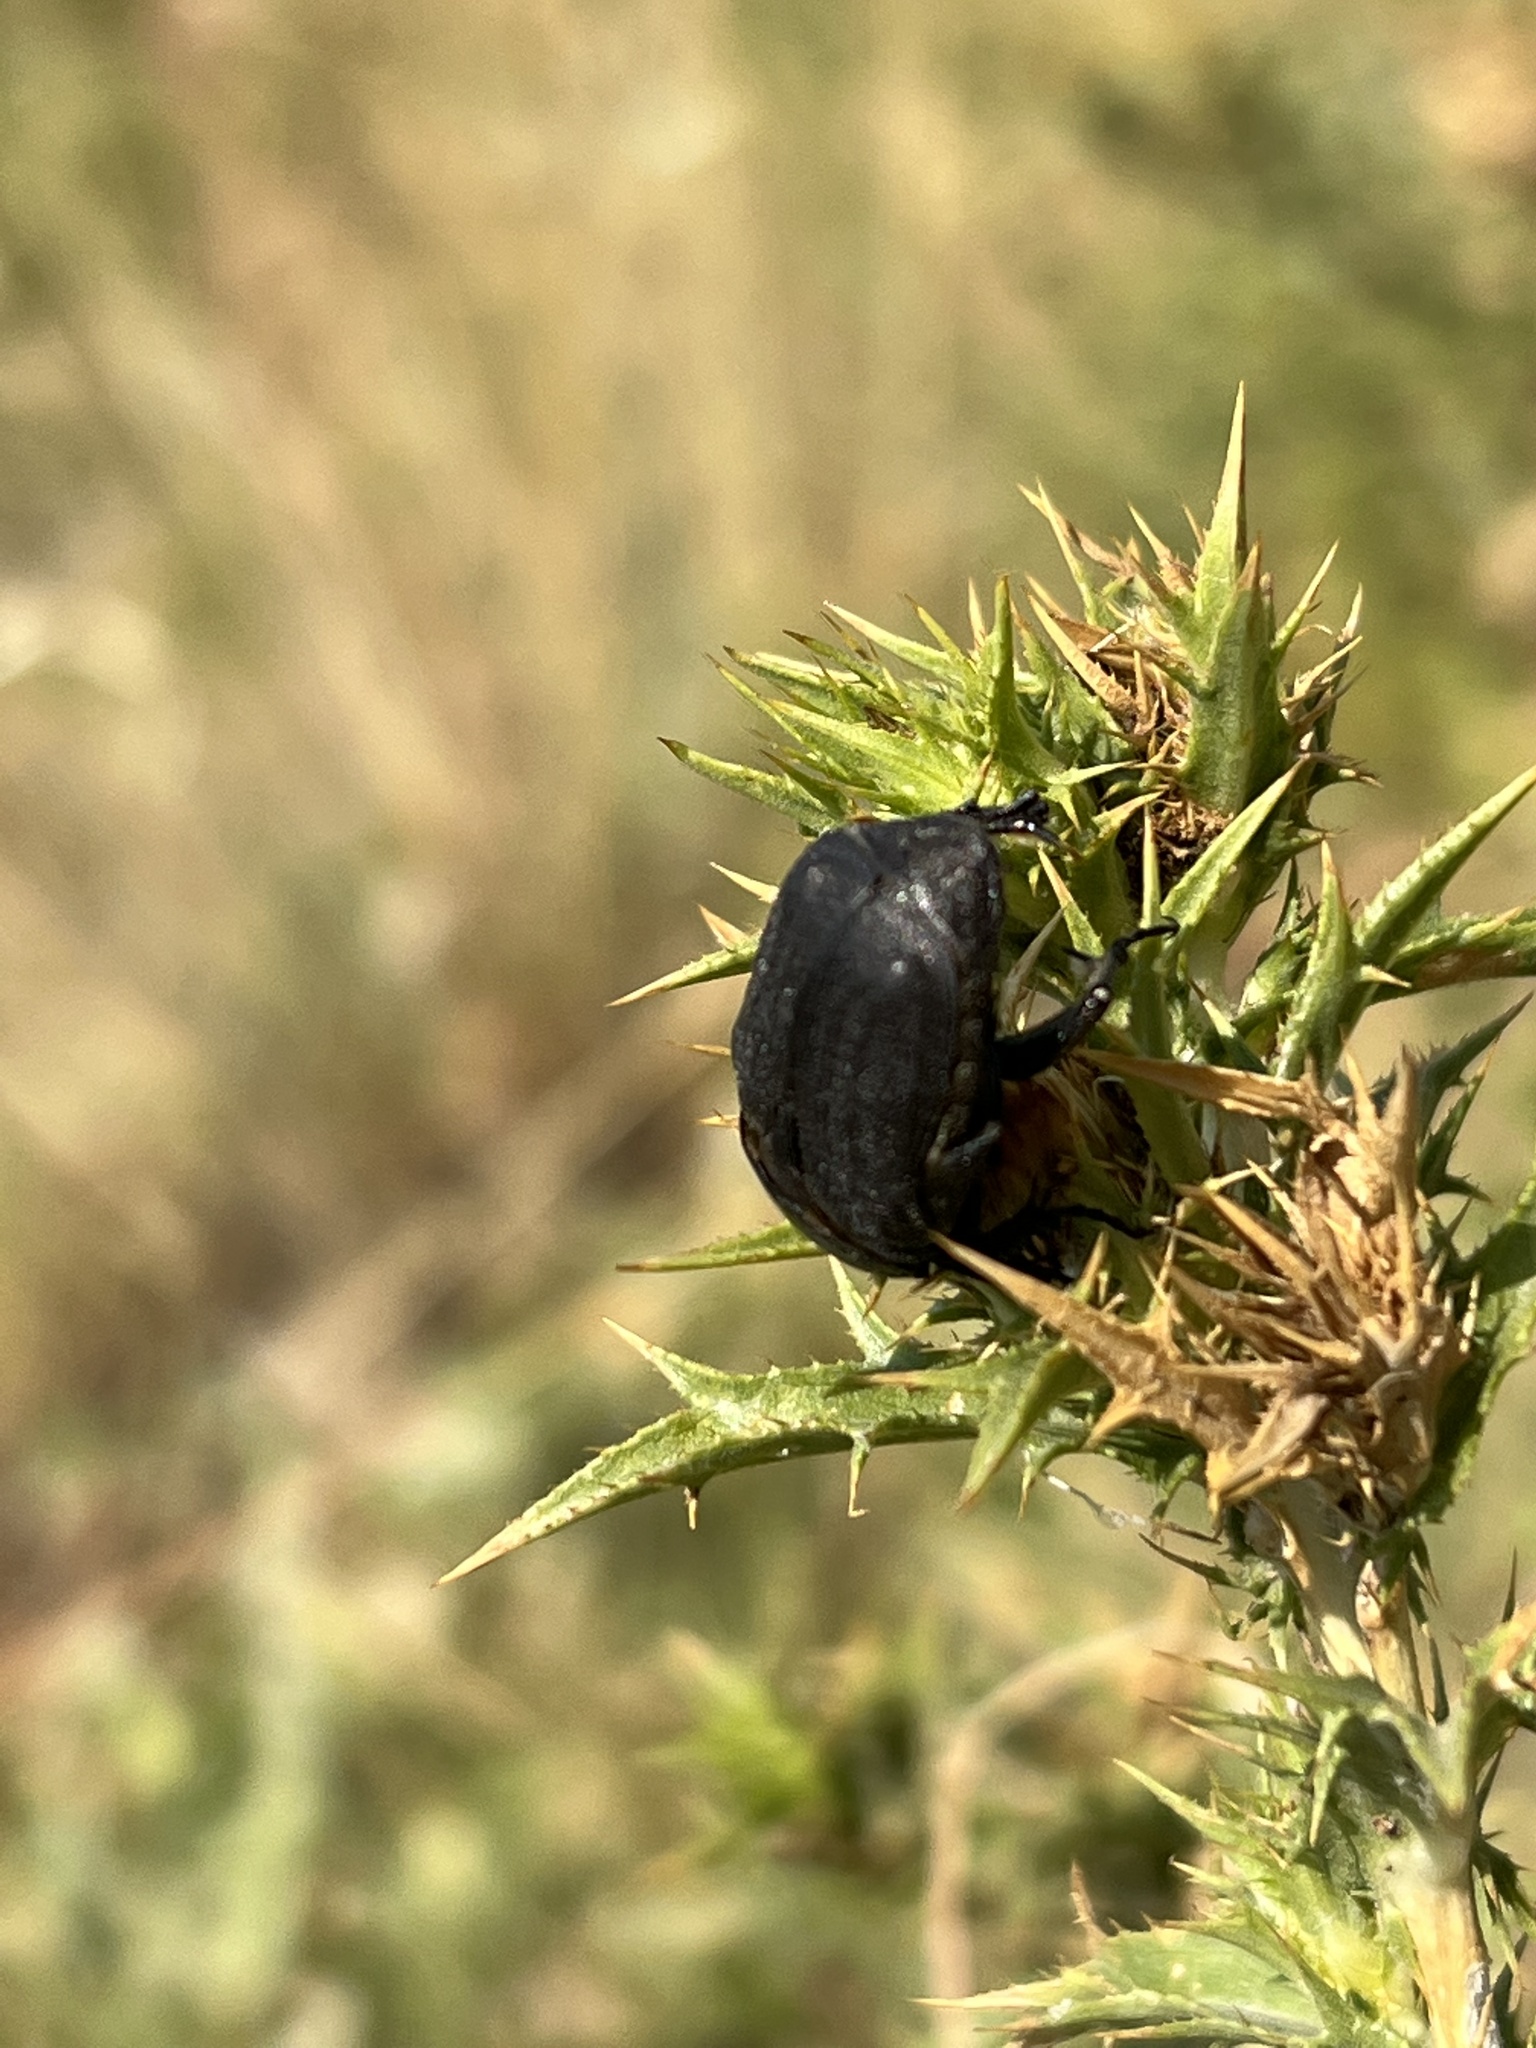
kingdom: Animalia
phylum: Arthropoda
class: Insecta
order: Coleoptera
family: Scarabaeidae
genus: Protaetia
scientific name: Protaetia morio
